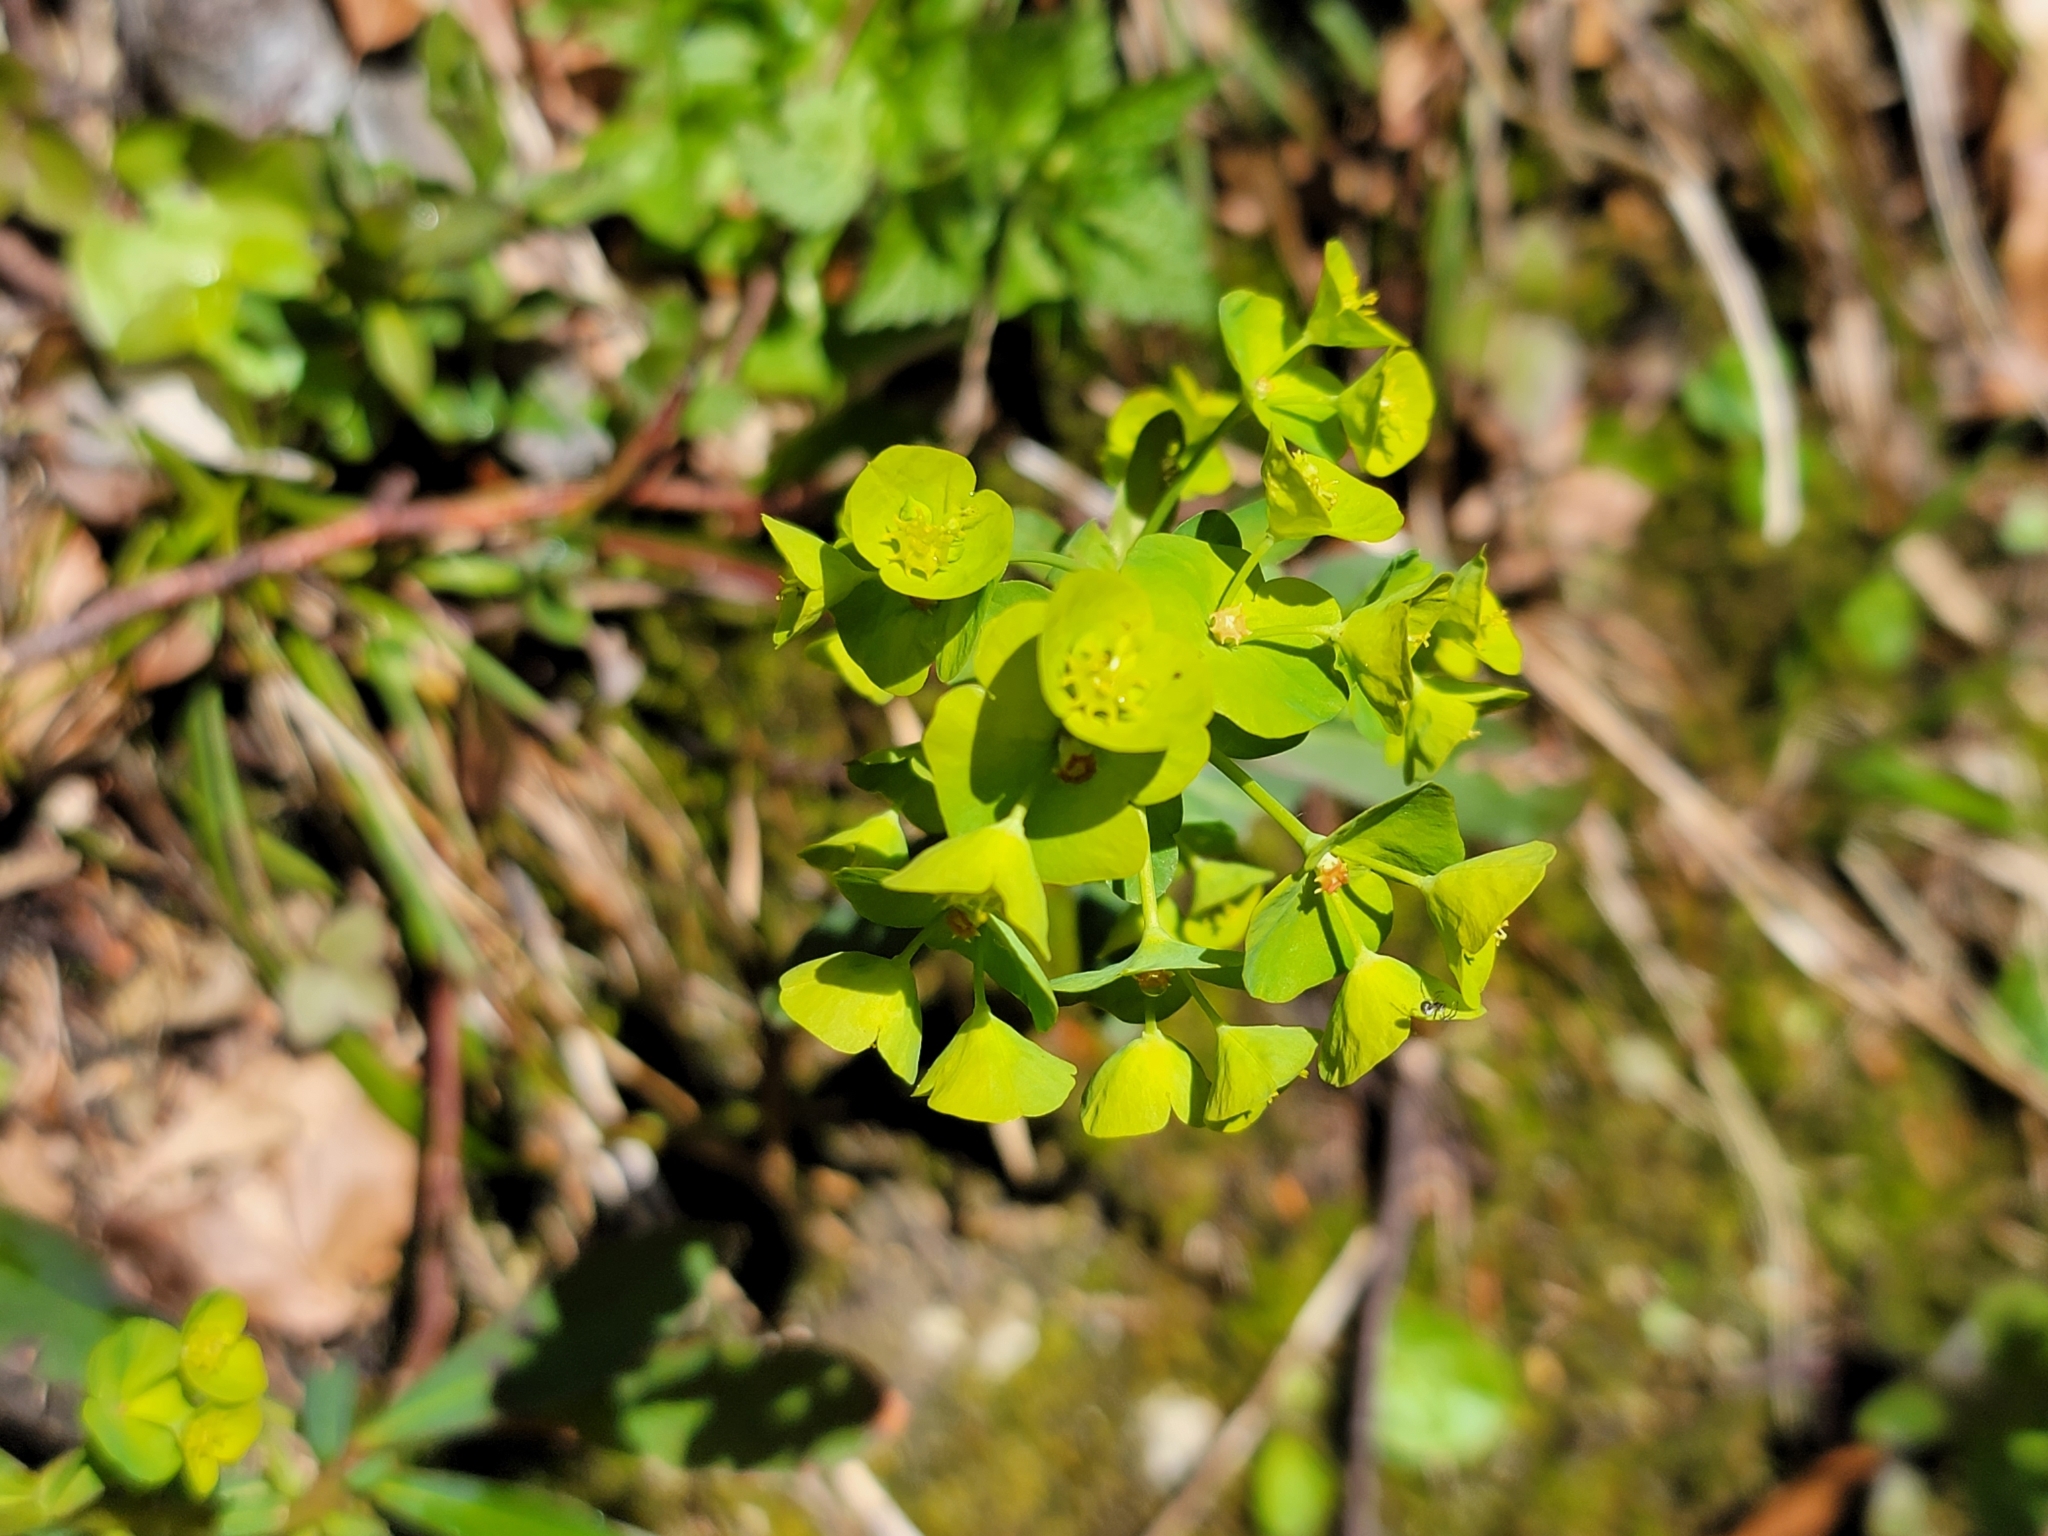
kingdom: Plantae
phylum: Tracheophyta
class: Magnoliopsida
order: Malpighiales
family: Euphorbiaceae
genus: Euphorbia
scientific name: Euphorbia amygdaloides
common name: Wood spurge
